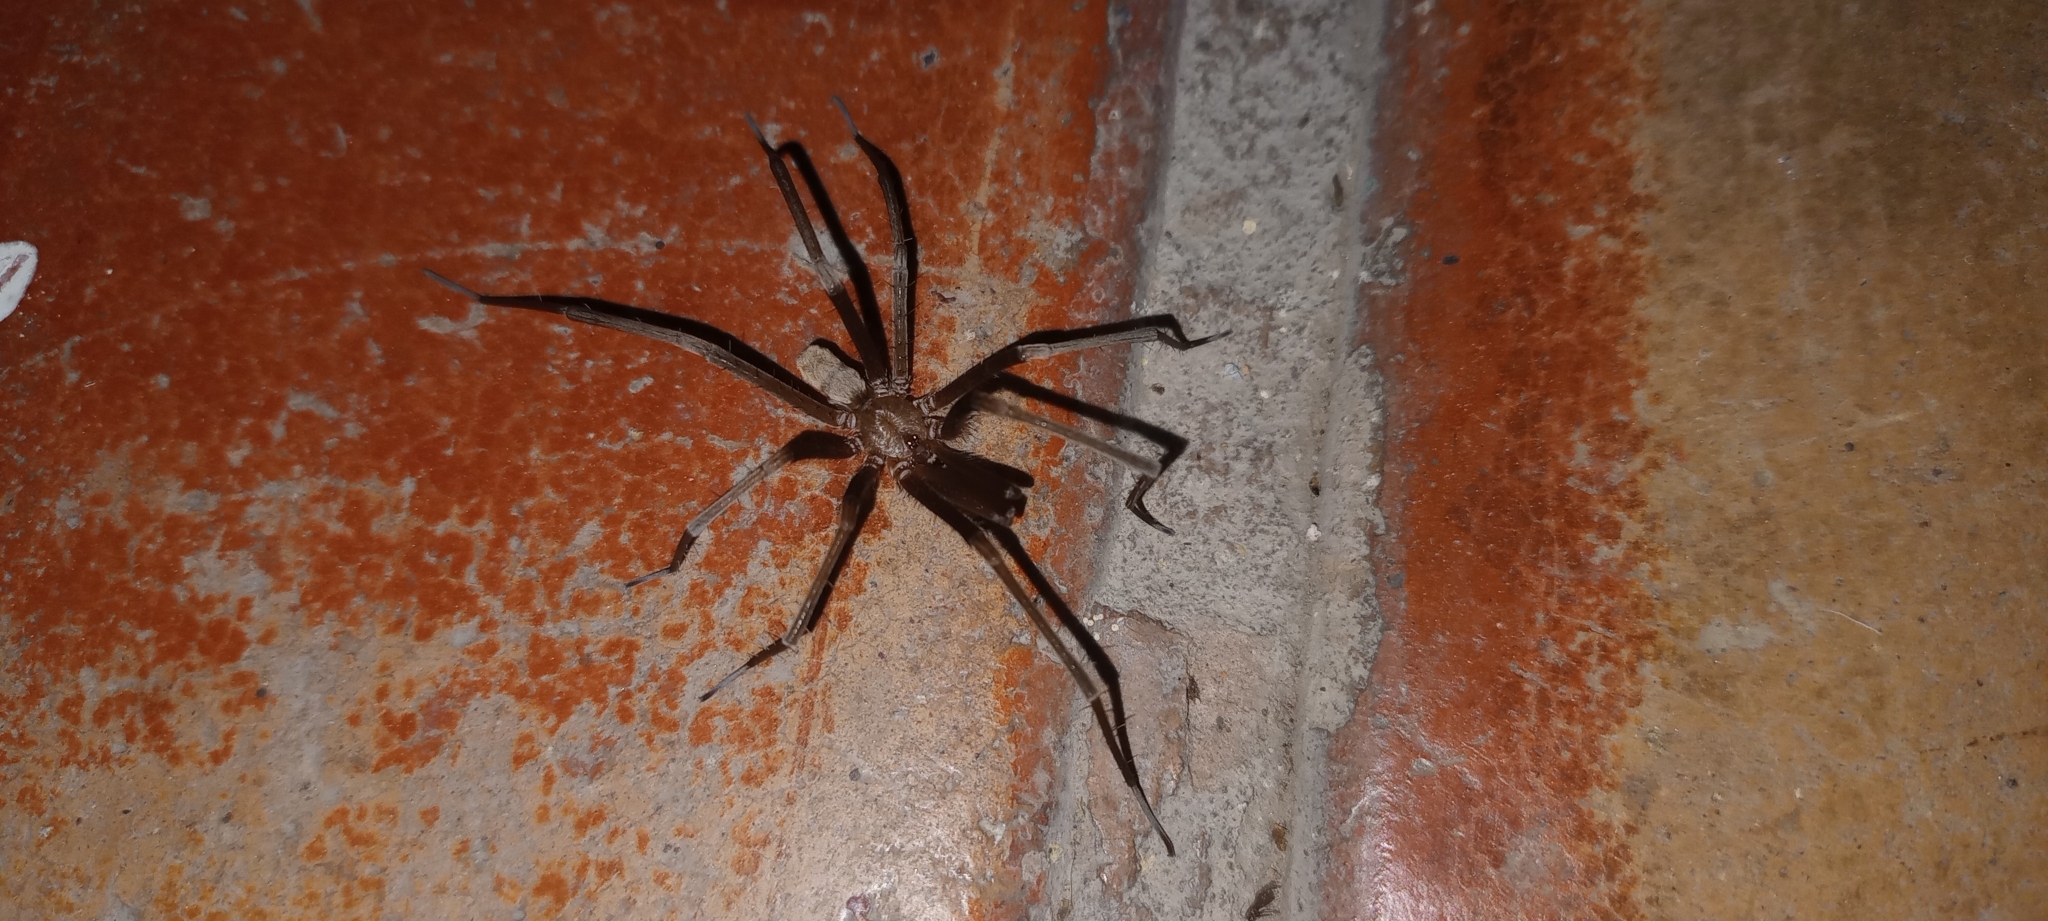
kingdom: Animalia
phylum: Arthropoda
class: Arachnida
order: Araneae
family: Filistatidae
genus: Kukulcania
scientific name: Kukulcania hibernalis
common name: Crevice weaver
